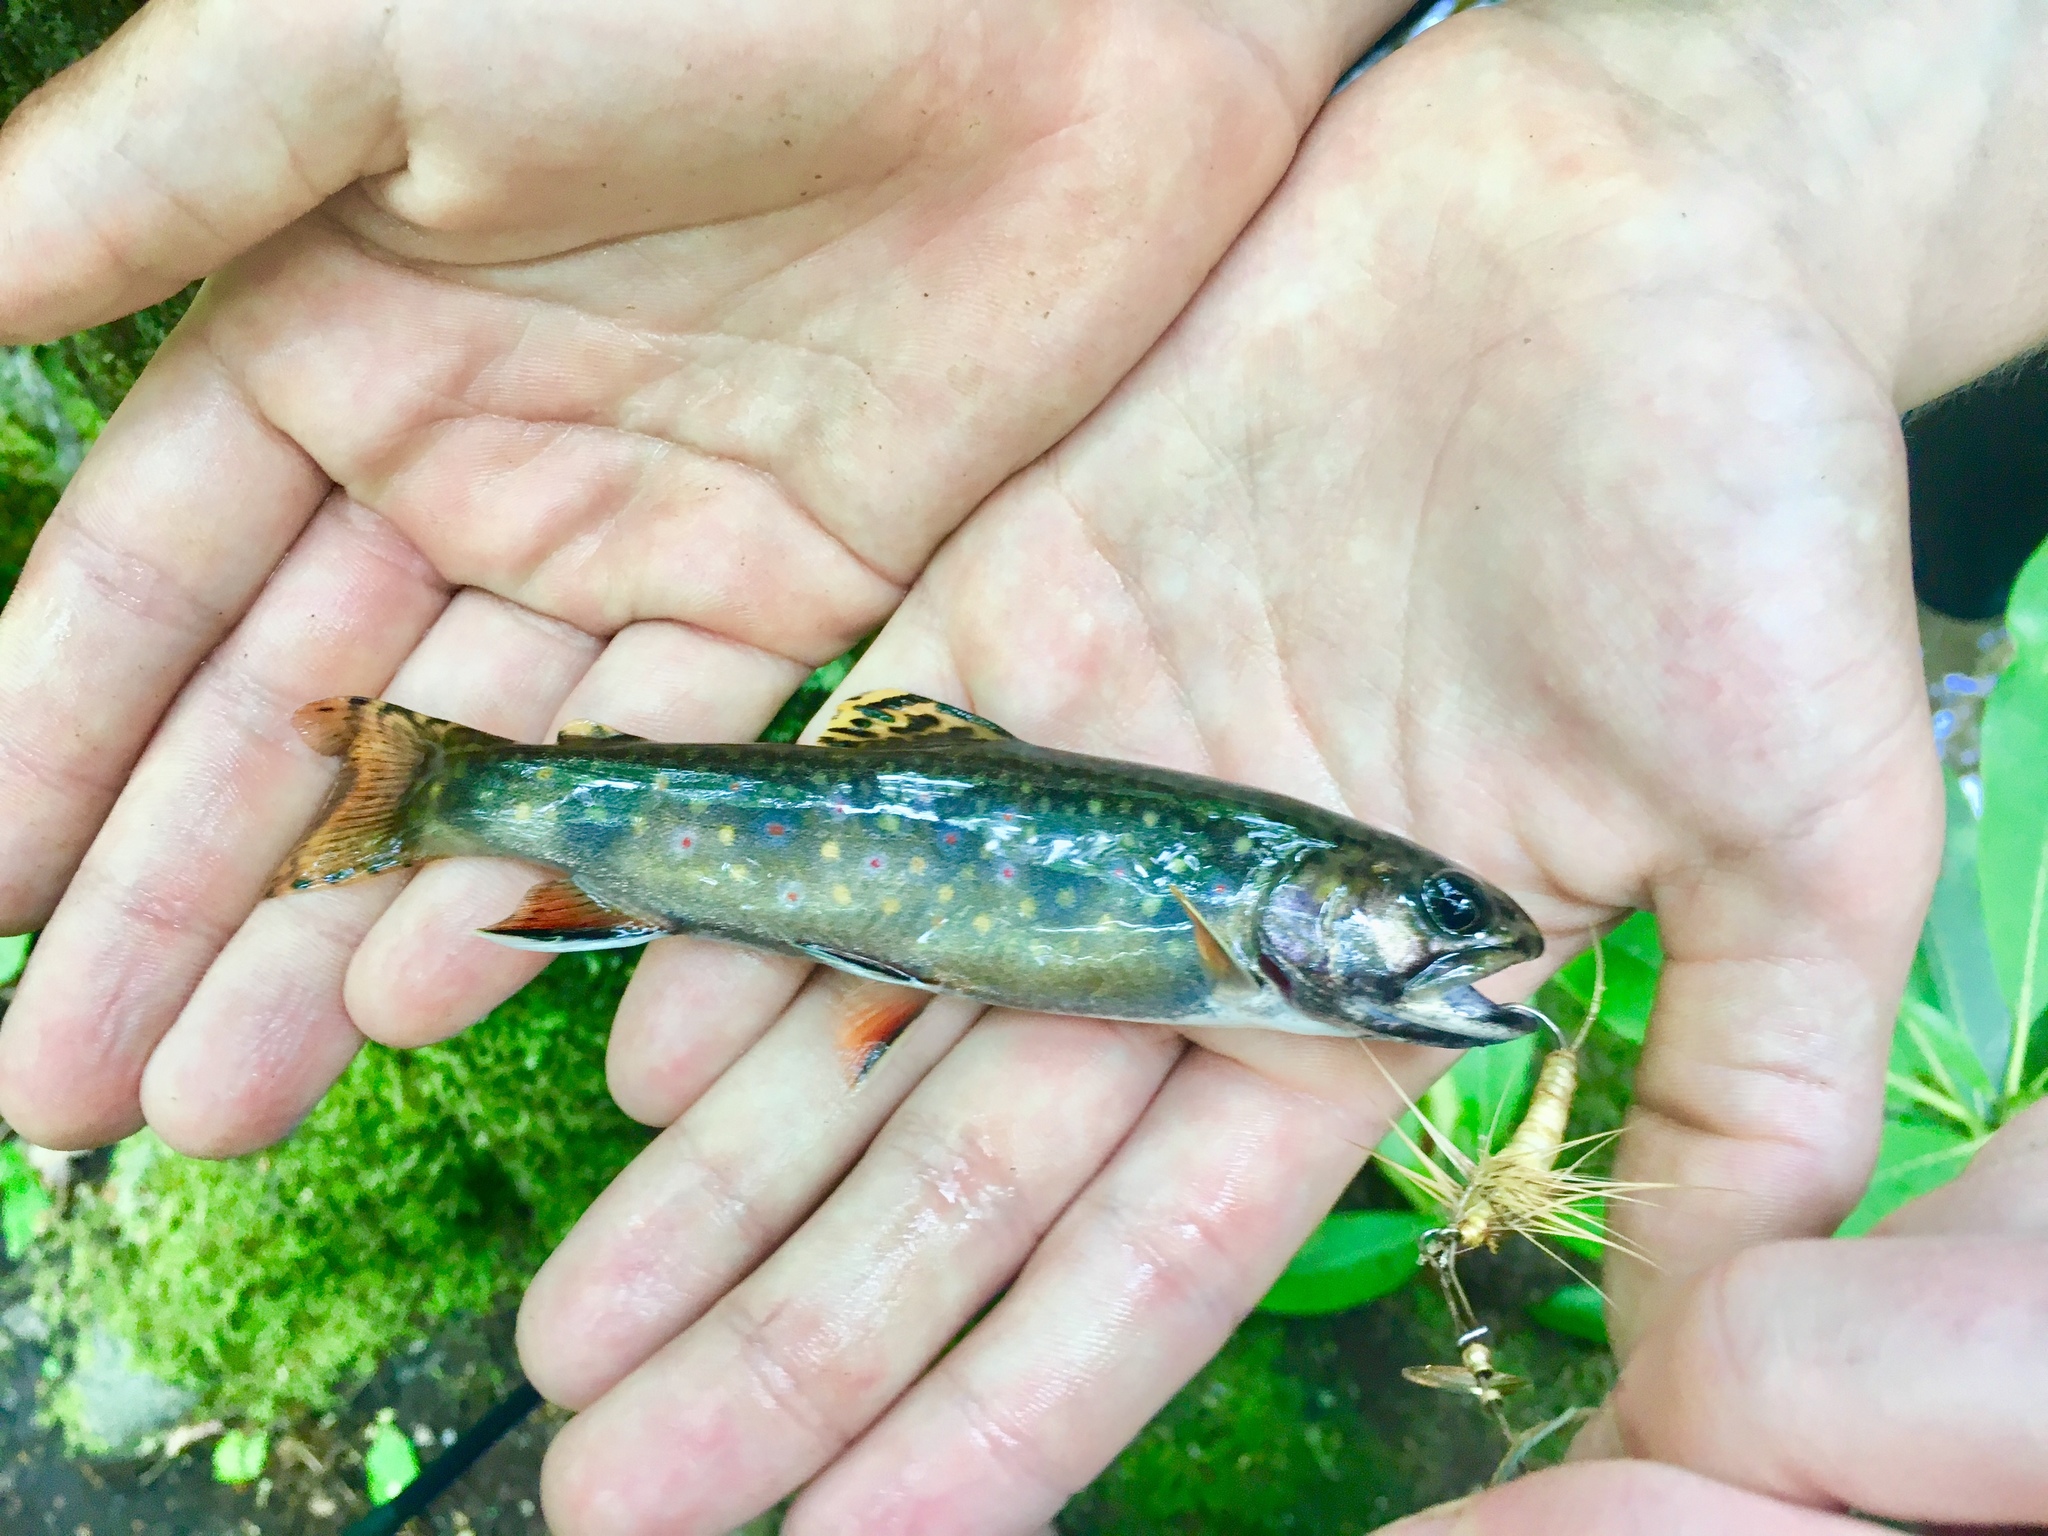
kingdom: Animalia
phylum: Chordata
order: Salmoniformes
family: Salmonidae
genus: Salvelinus
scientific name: Salvelinus fontinalis
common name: Brook trout
